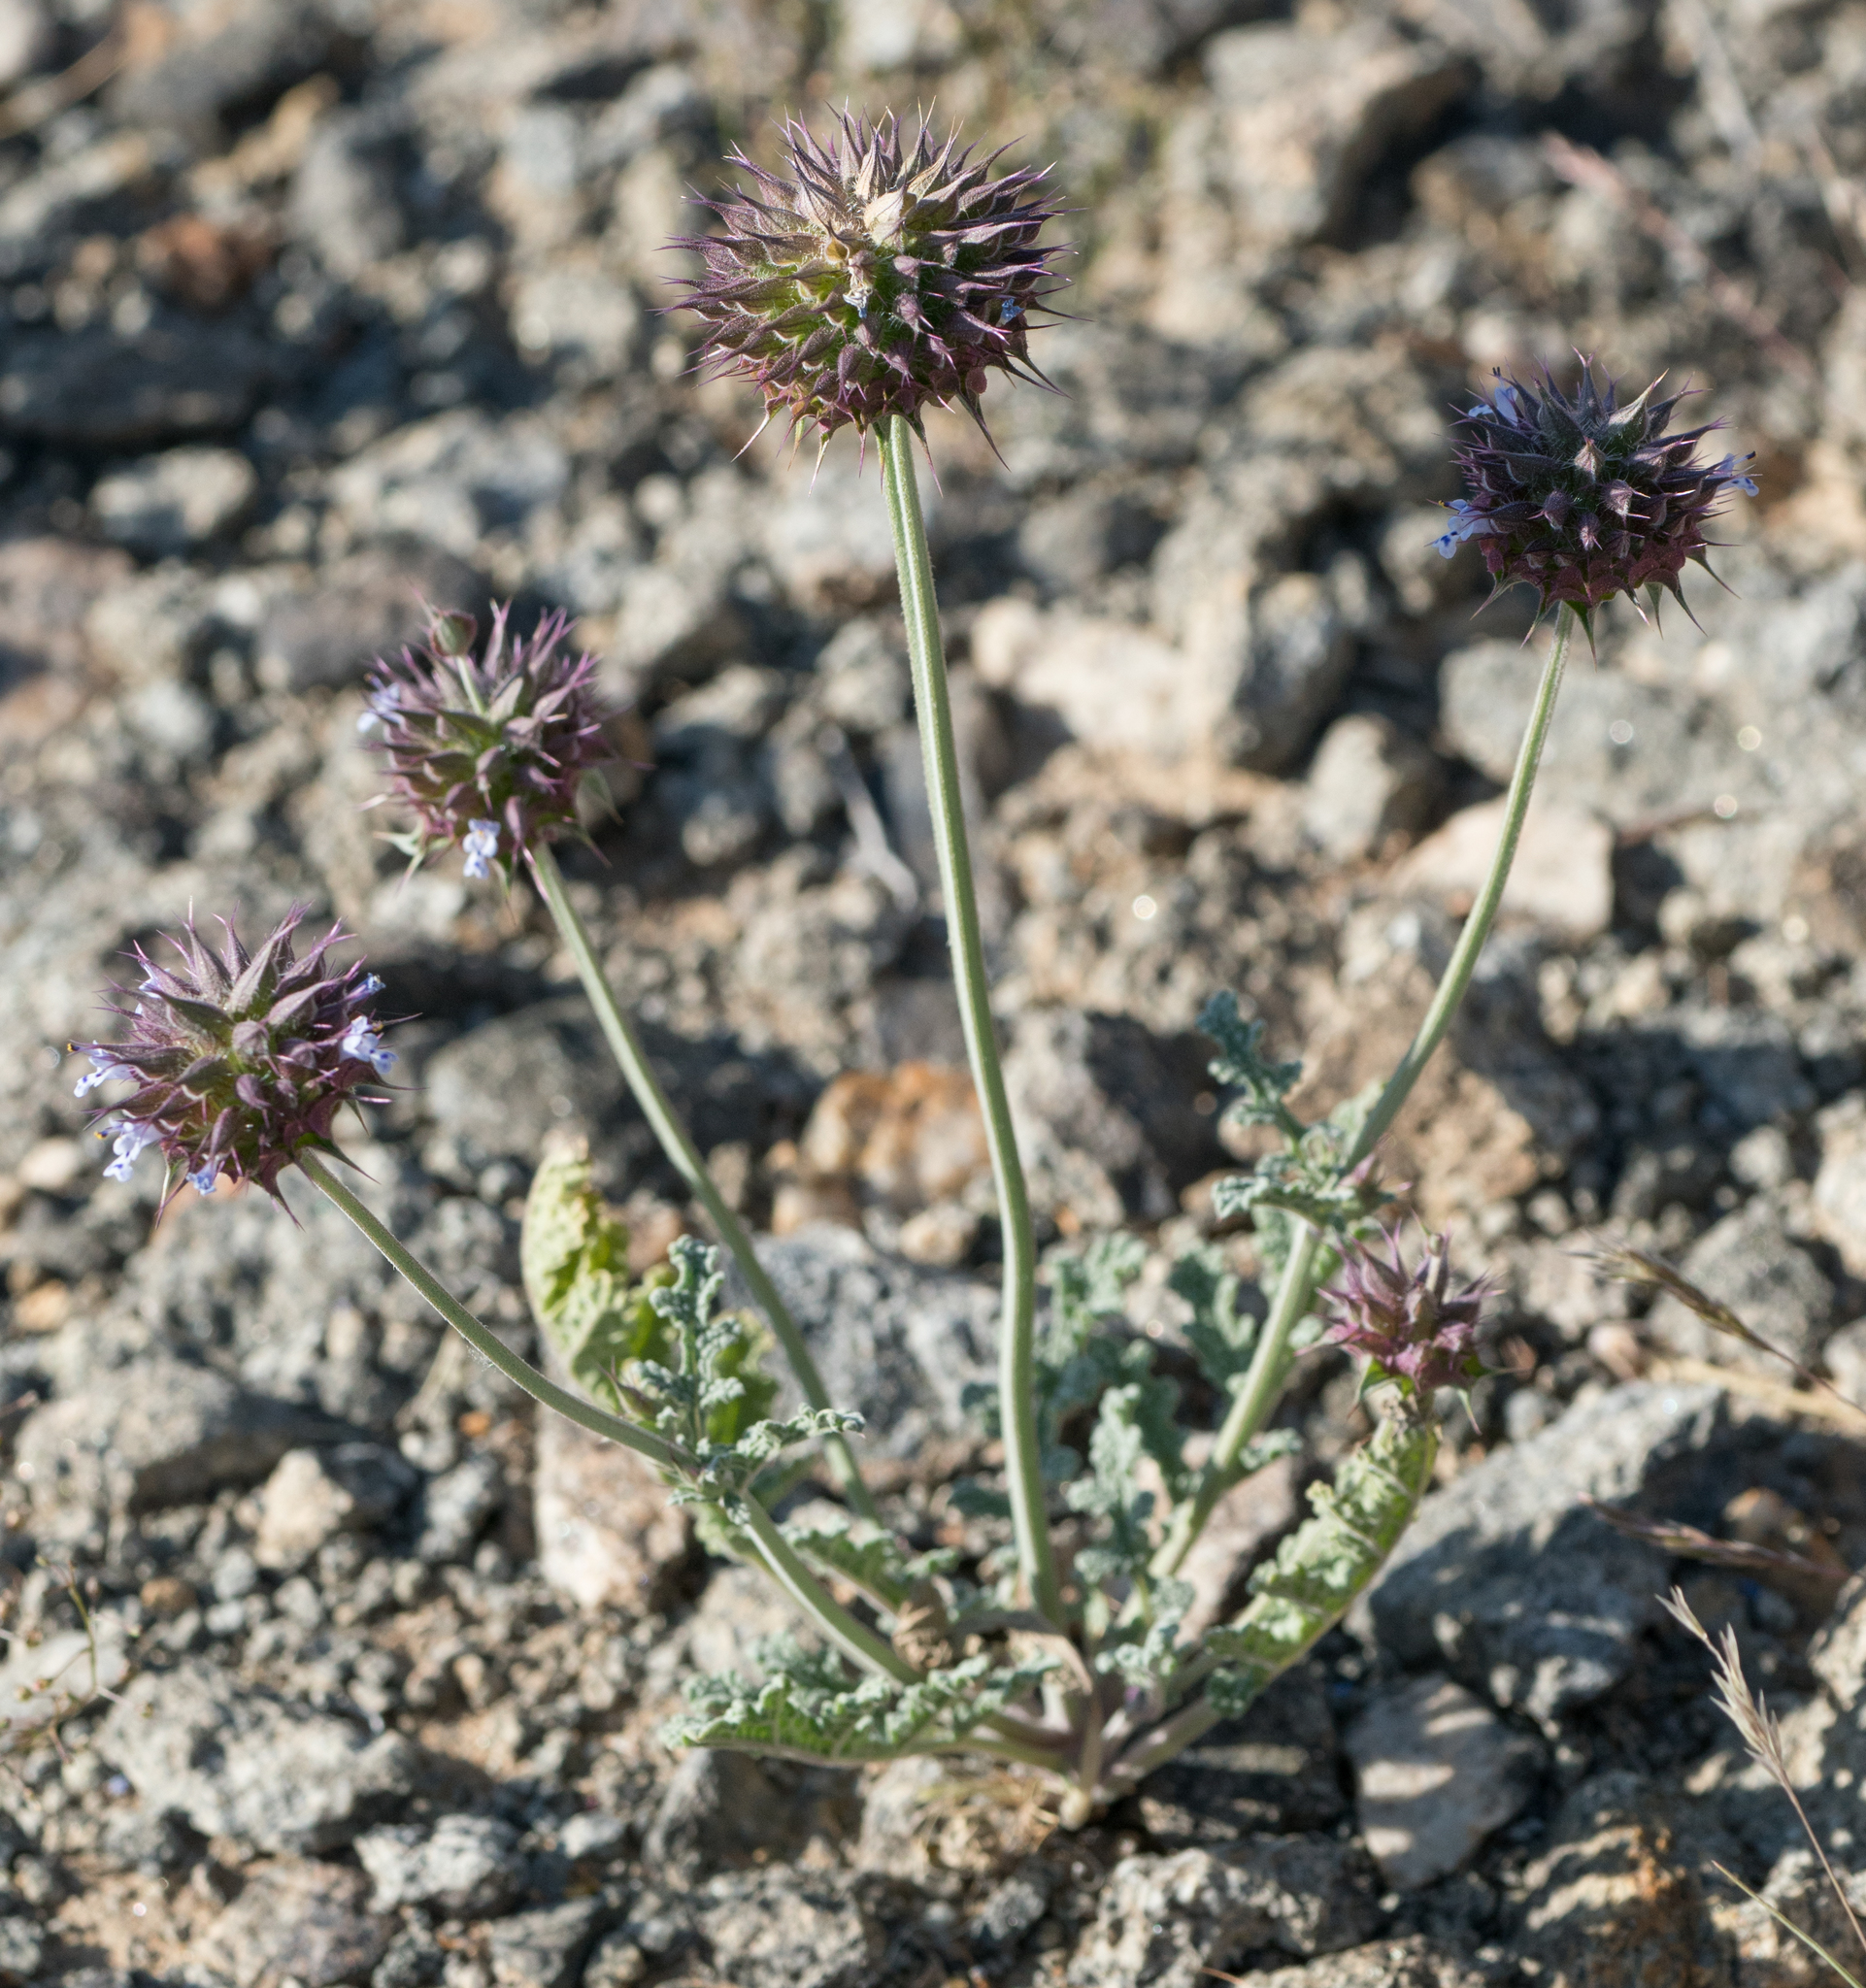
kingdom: Plantae
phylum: Tracheophyta
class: Magnoliopsida
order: Lamiales
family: Lamiaceae
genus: Salvia
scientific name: Salvia columbariae
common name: Chia
